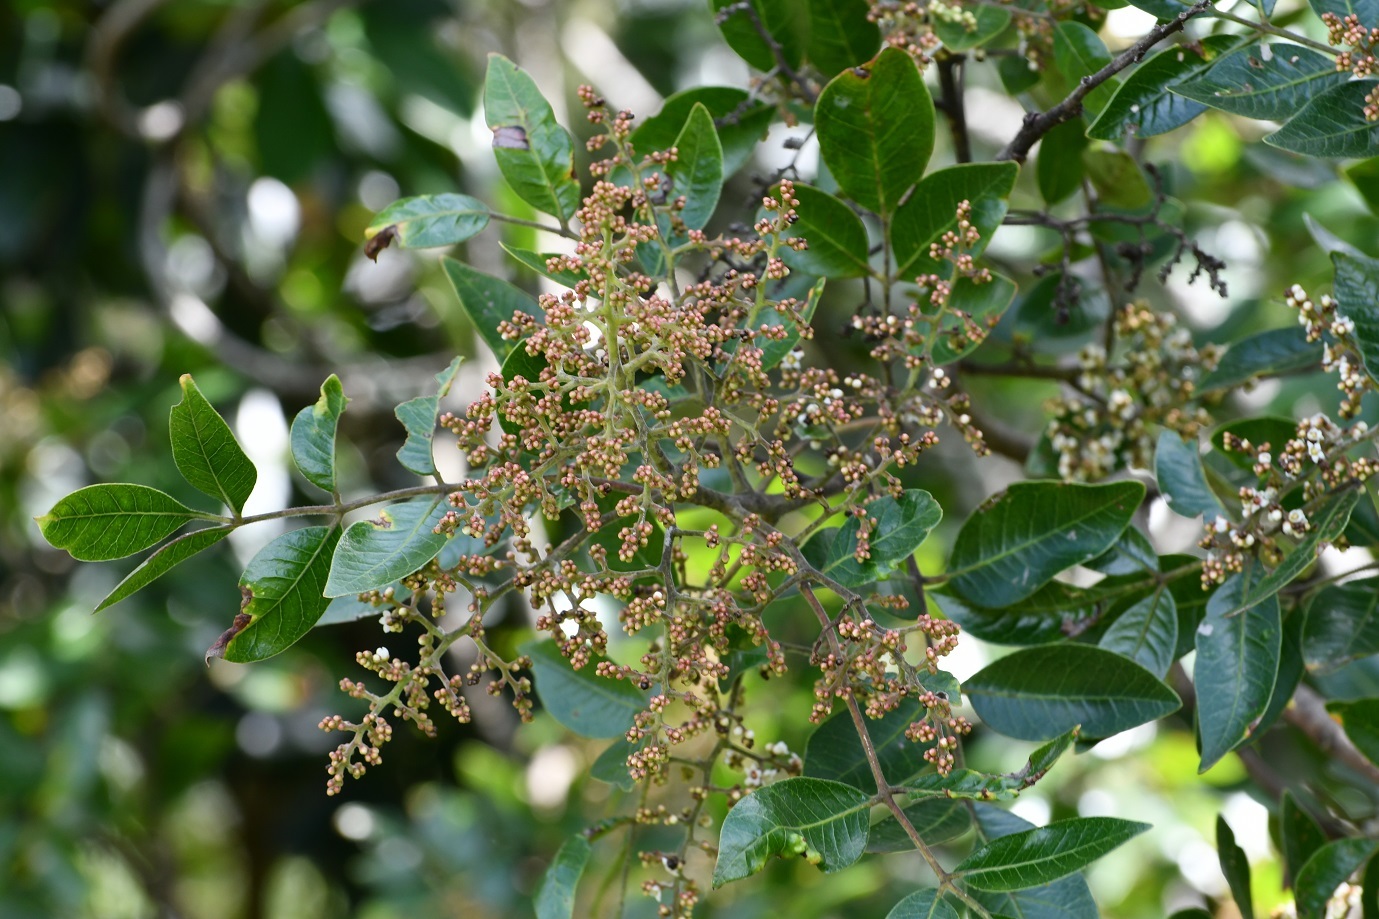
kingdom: Plantae
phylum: Tracheophyta
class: Magnoliopsida
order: Sapindales
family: Anacardiaceae
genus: Rhus
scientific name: Rhus schiedeana
